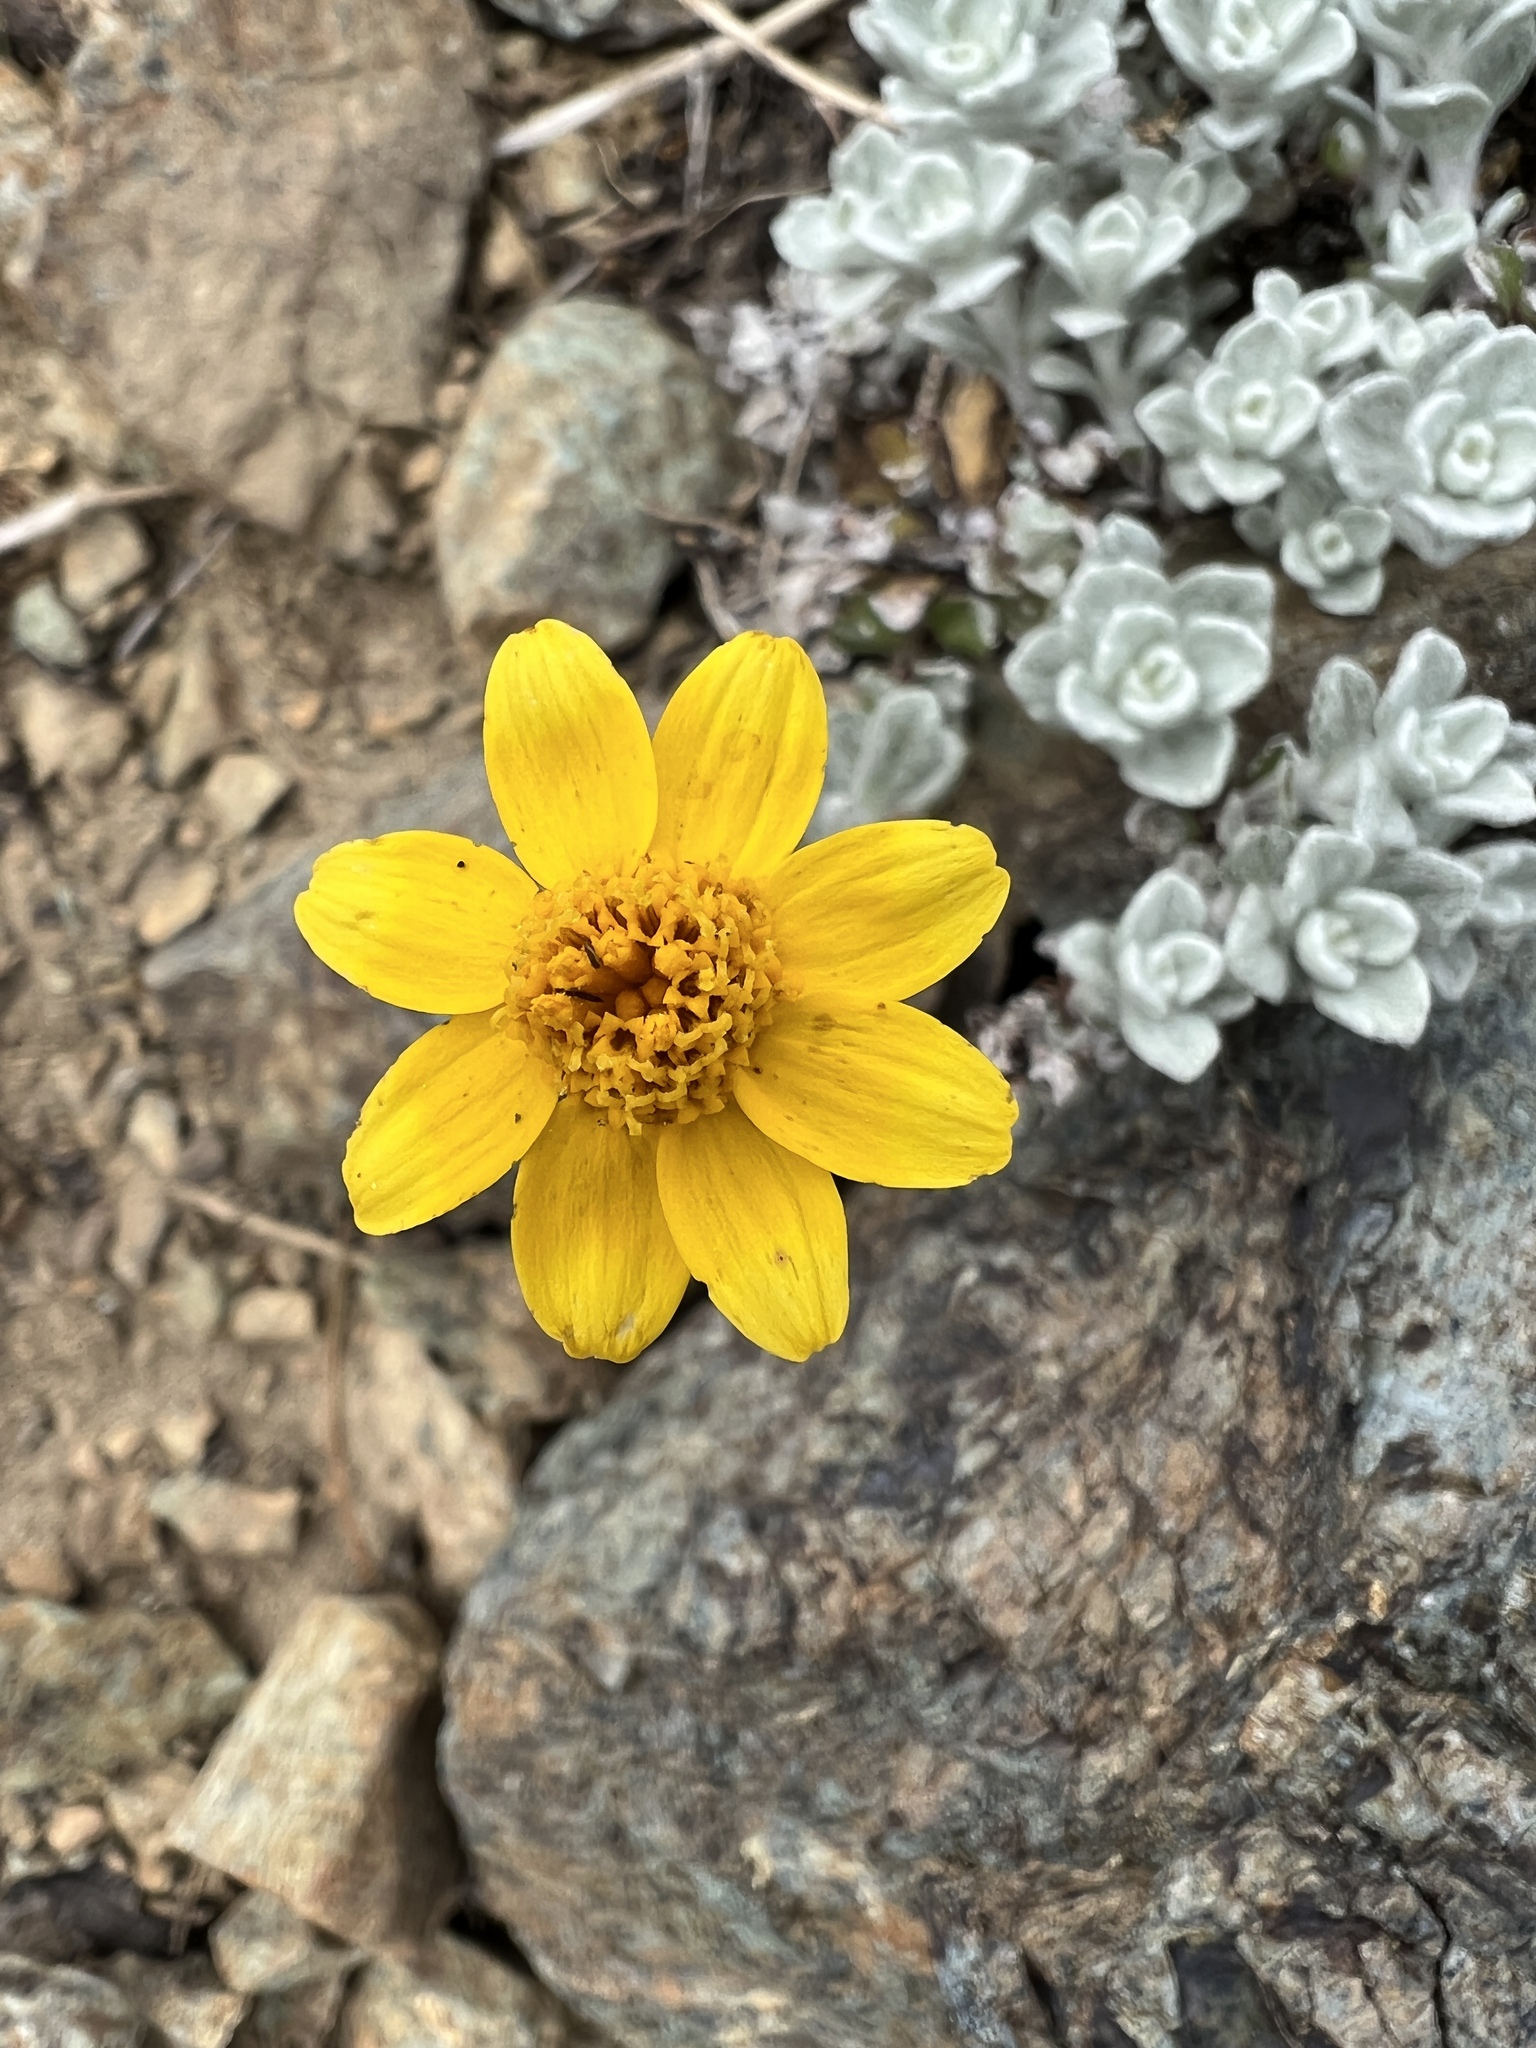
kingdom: Plantae
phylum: Tracheophyta
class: Magnoliopsida
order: Asterales
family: Asteraceae
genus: Eriophyllum
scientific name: Eriophyllum lanatum
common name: Common woolly-sunflower
